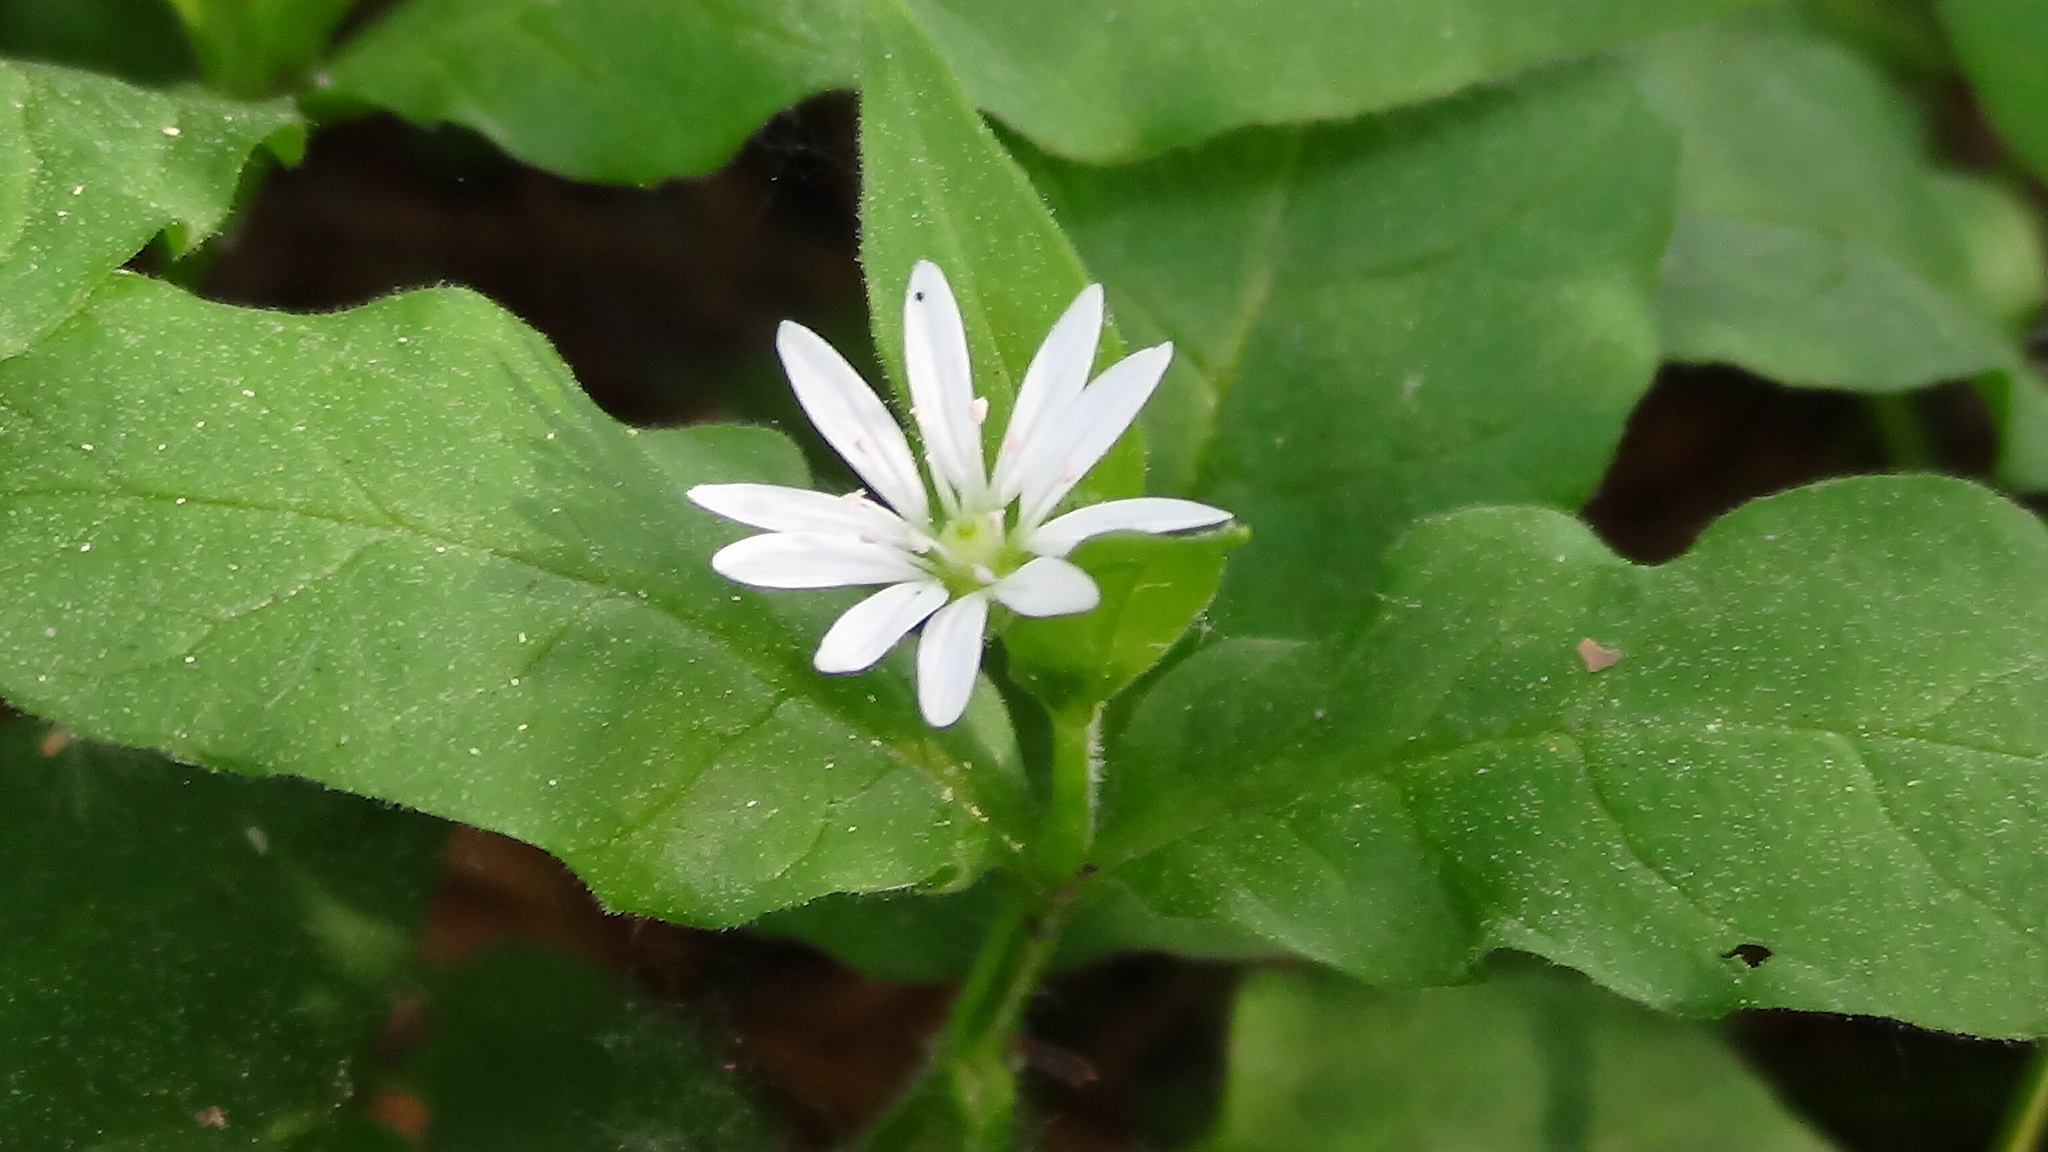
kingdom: Plantae
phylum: Tracheophyta
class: Magnoliopsida
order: Caryophyllales
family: Caryophyllaceae
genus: Stellaria
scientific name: Stellaria bungeana
